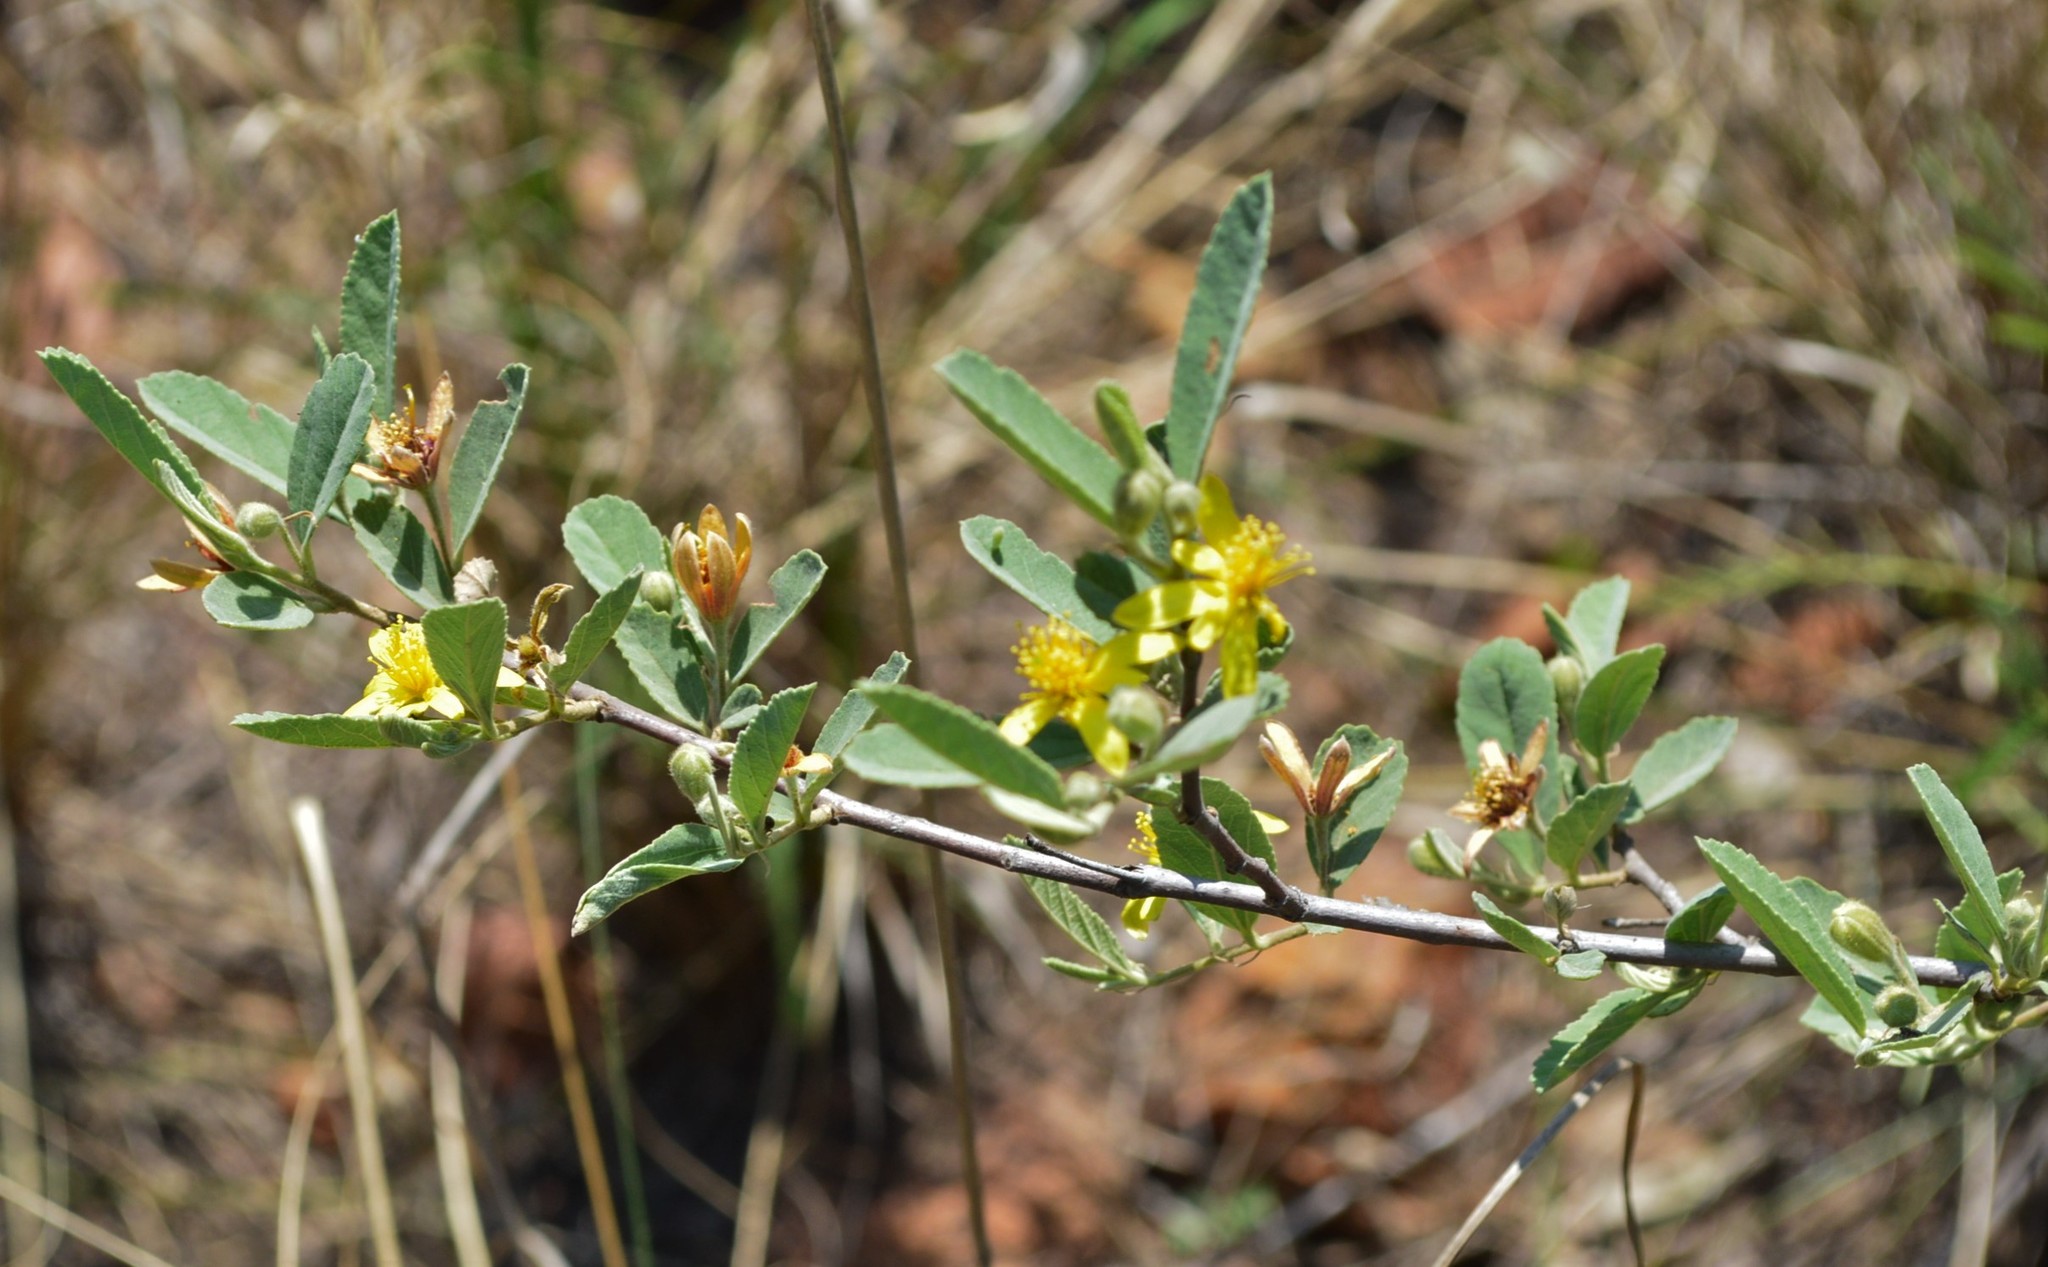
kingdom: Plantae
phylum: Tracheophyta
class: Magnoliopsida
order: Malvales
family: Malvaceae
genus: Grewia
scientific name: Grewia flava
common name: Brandy bush
